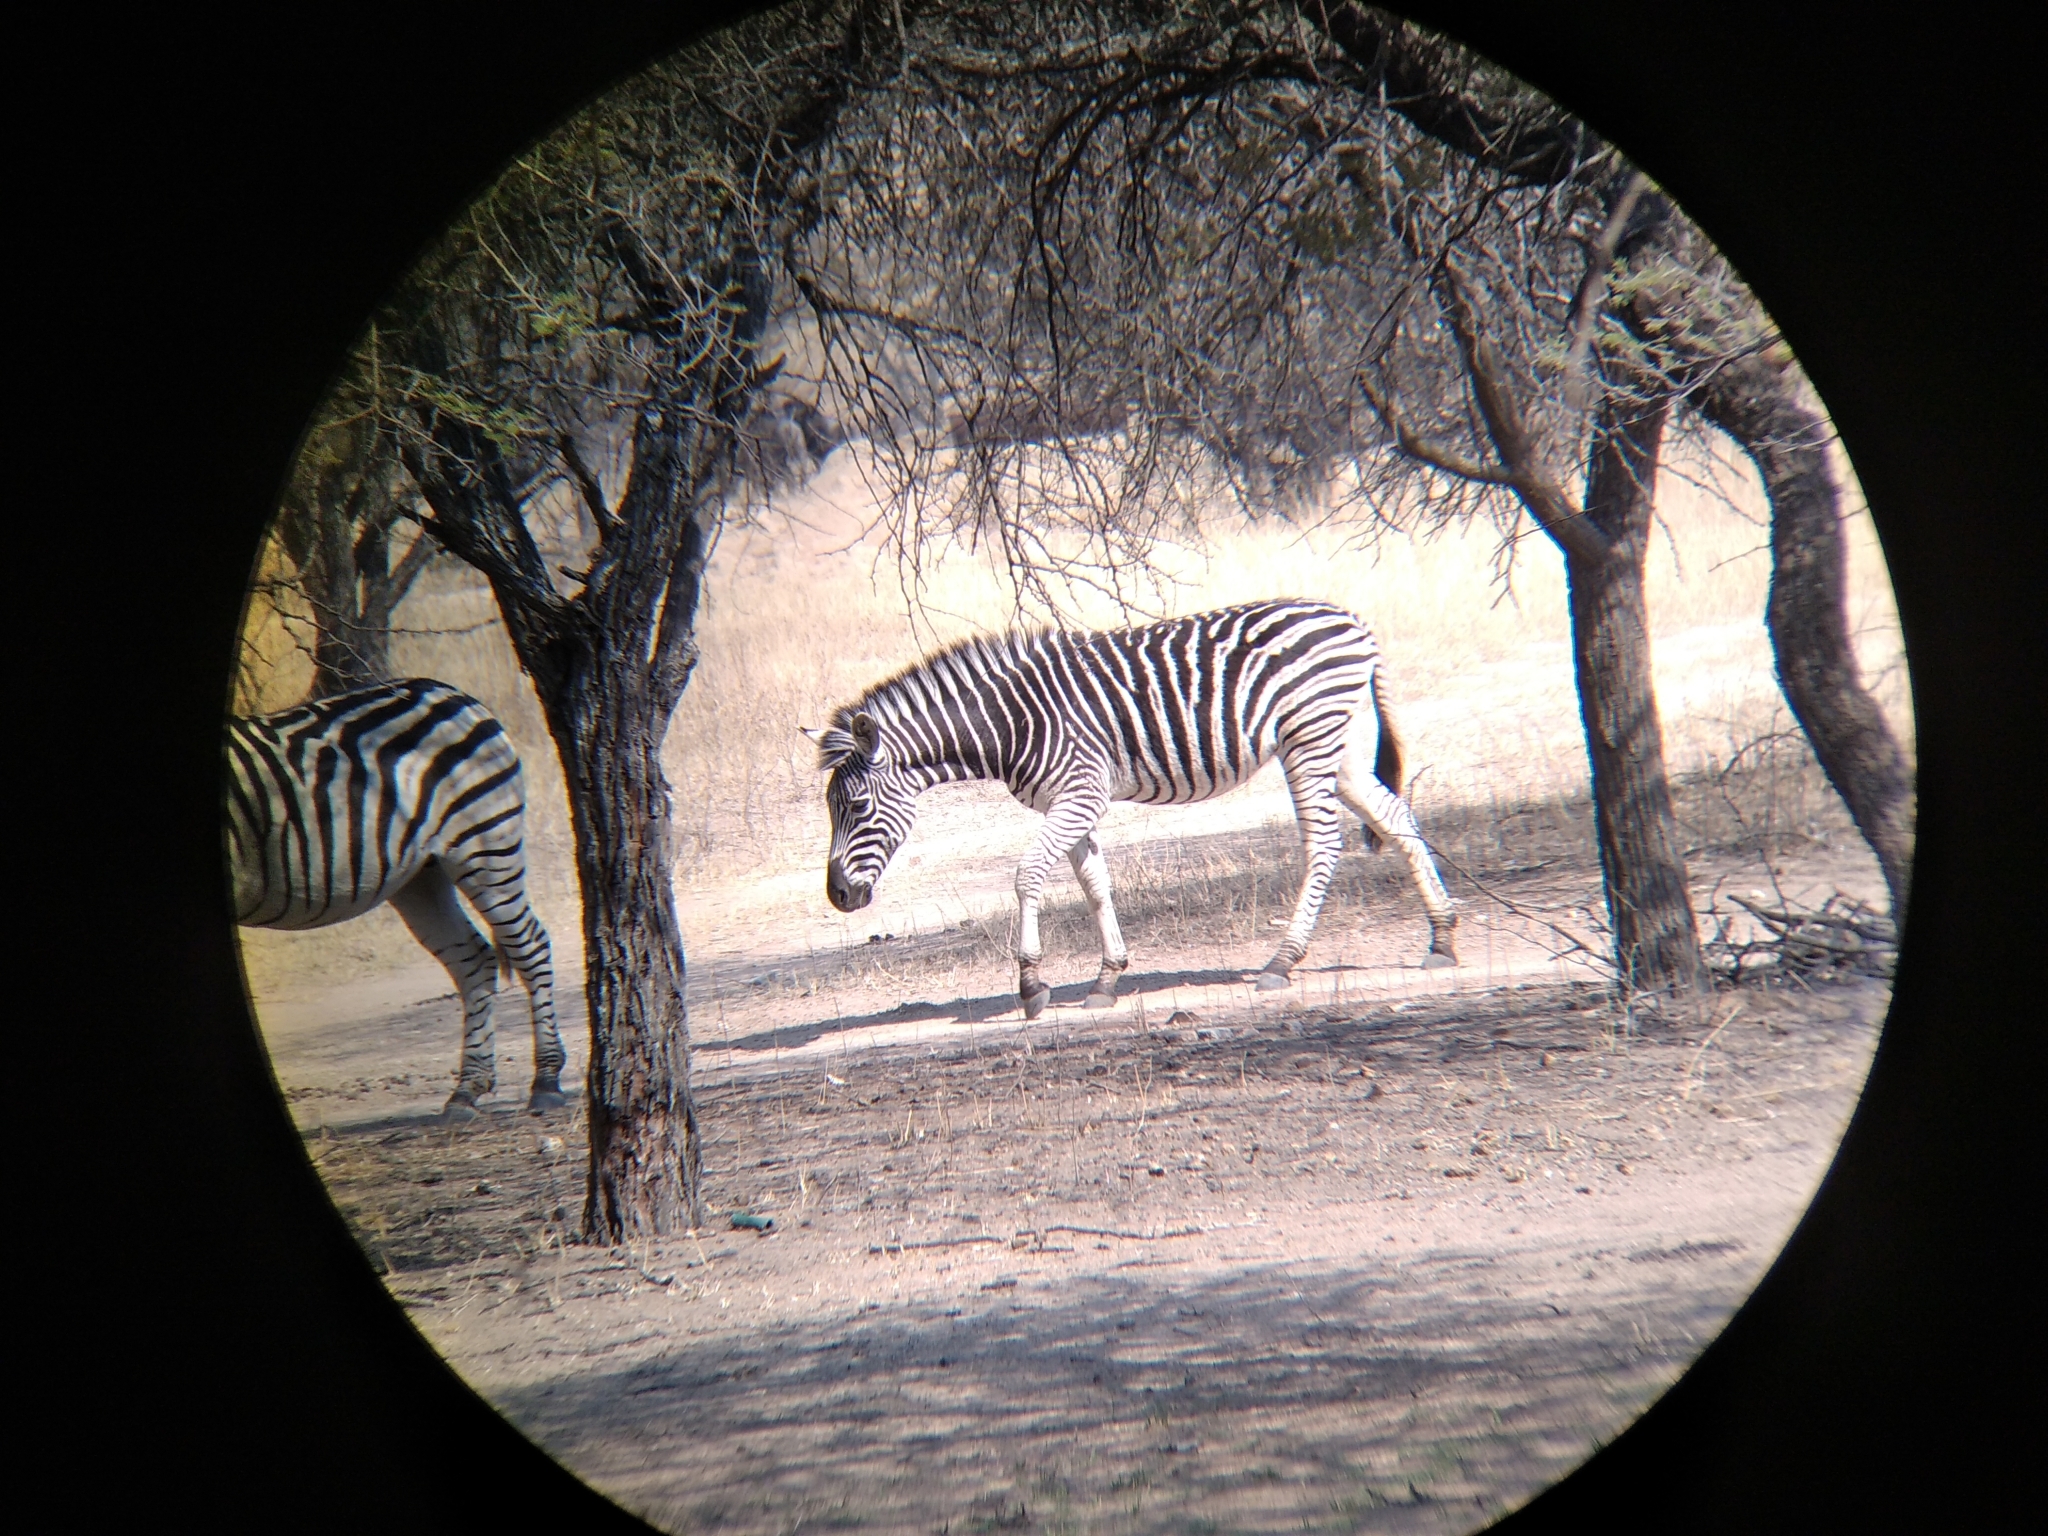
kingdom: Animalia
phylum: Chordata
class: Mammalia
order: Perissodactyla
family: Equidae
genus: Equus
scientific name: Equus quagga
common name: Plains zebra
